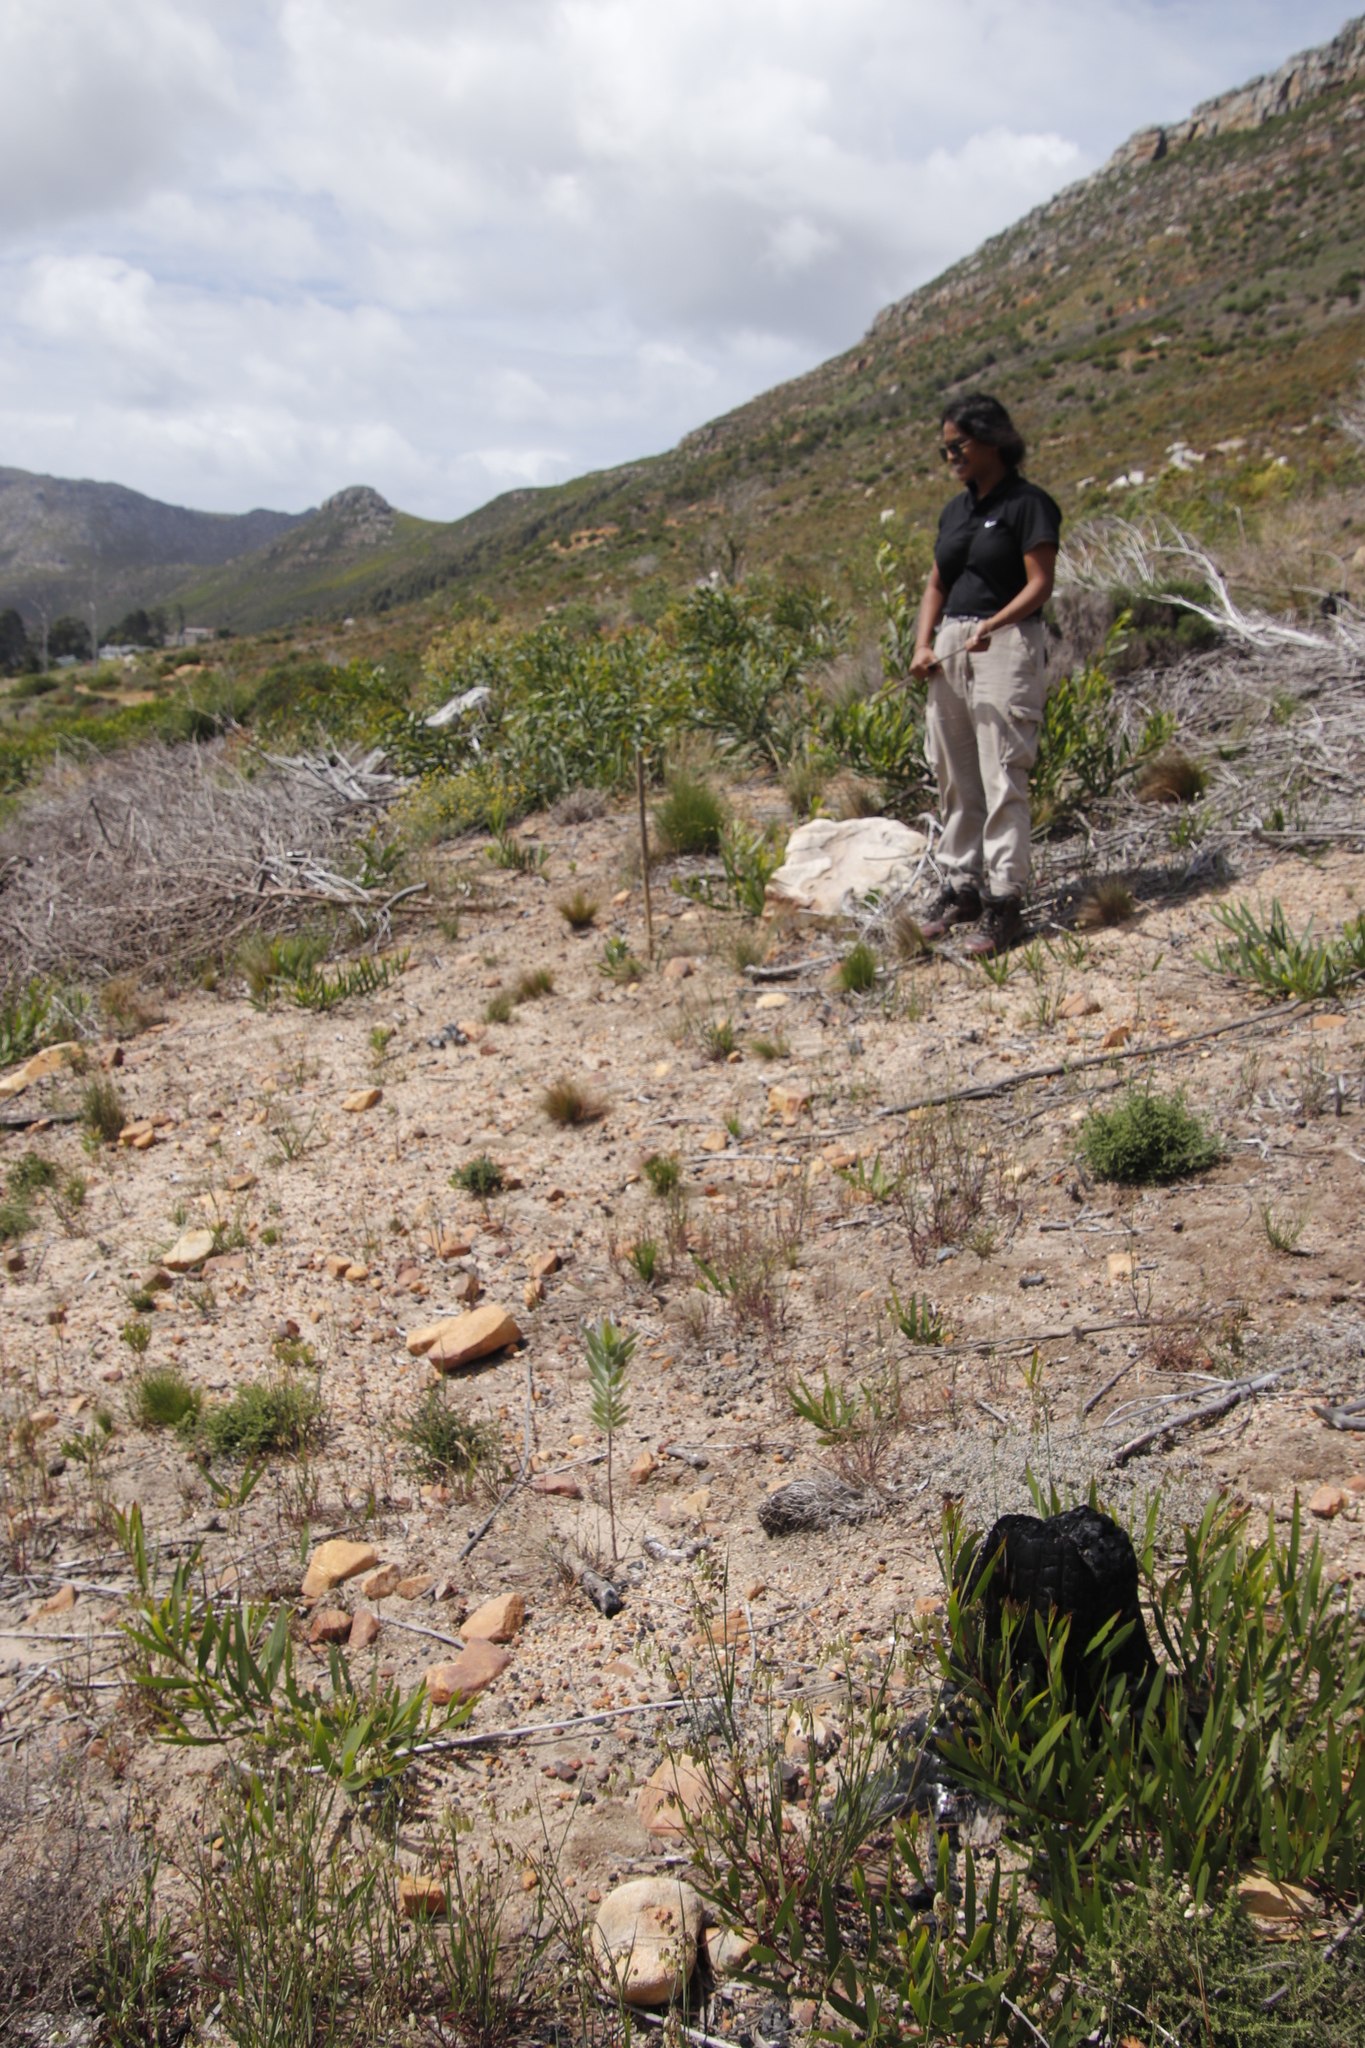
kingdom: Plantae
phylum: Tracheophyta
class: Magnoliopsida
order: Proteales
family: Proteaceae
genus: Leucadendron
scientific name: Leucadendron argenteum
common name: Cape silver tree
